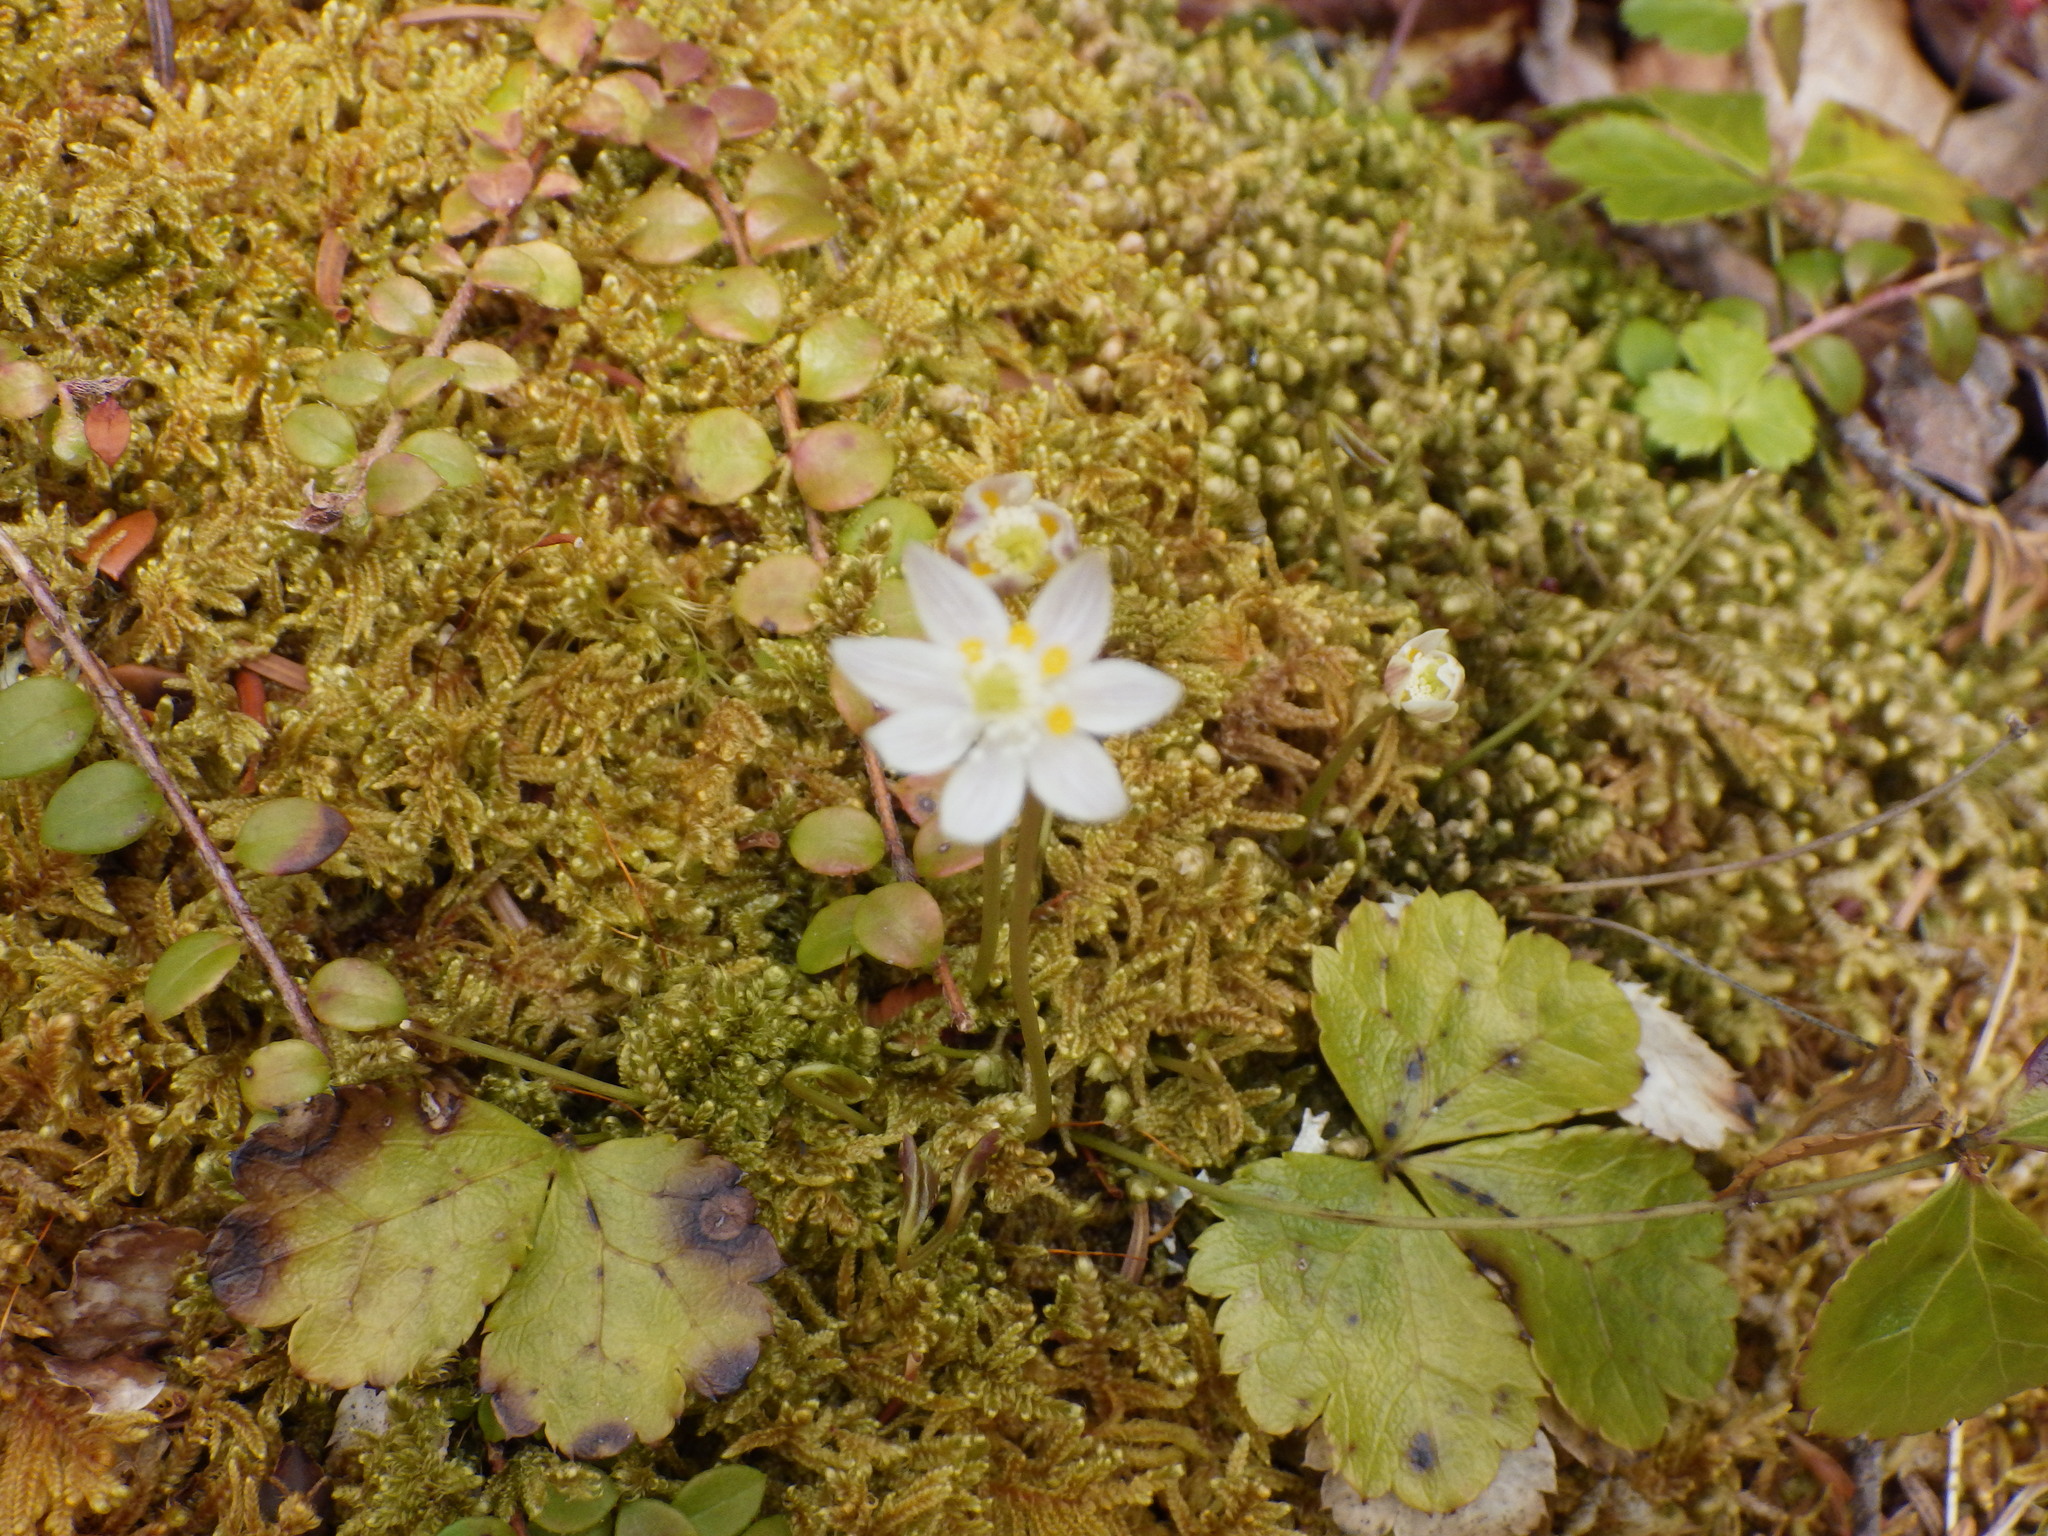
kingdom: Plantae
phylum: Tracheophyta
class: Magnoliopsida
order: Ranunculales
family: Ranunculaceae
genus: Coptis
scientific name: Coptis trifolia
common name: Canker-root
